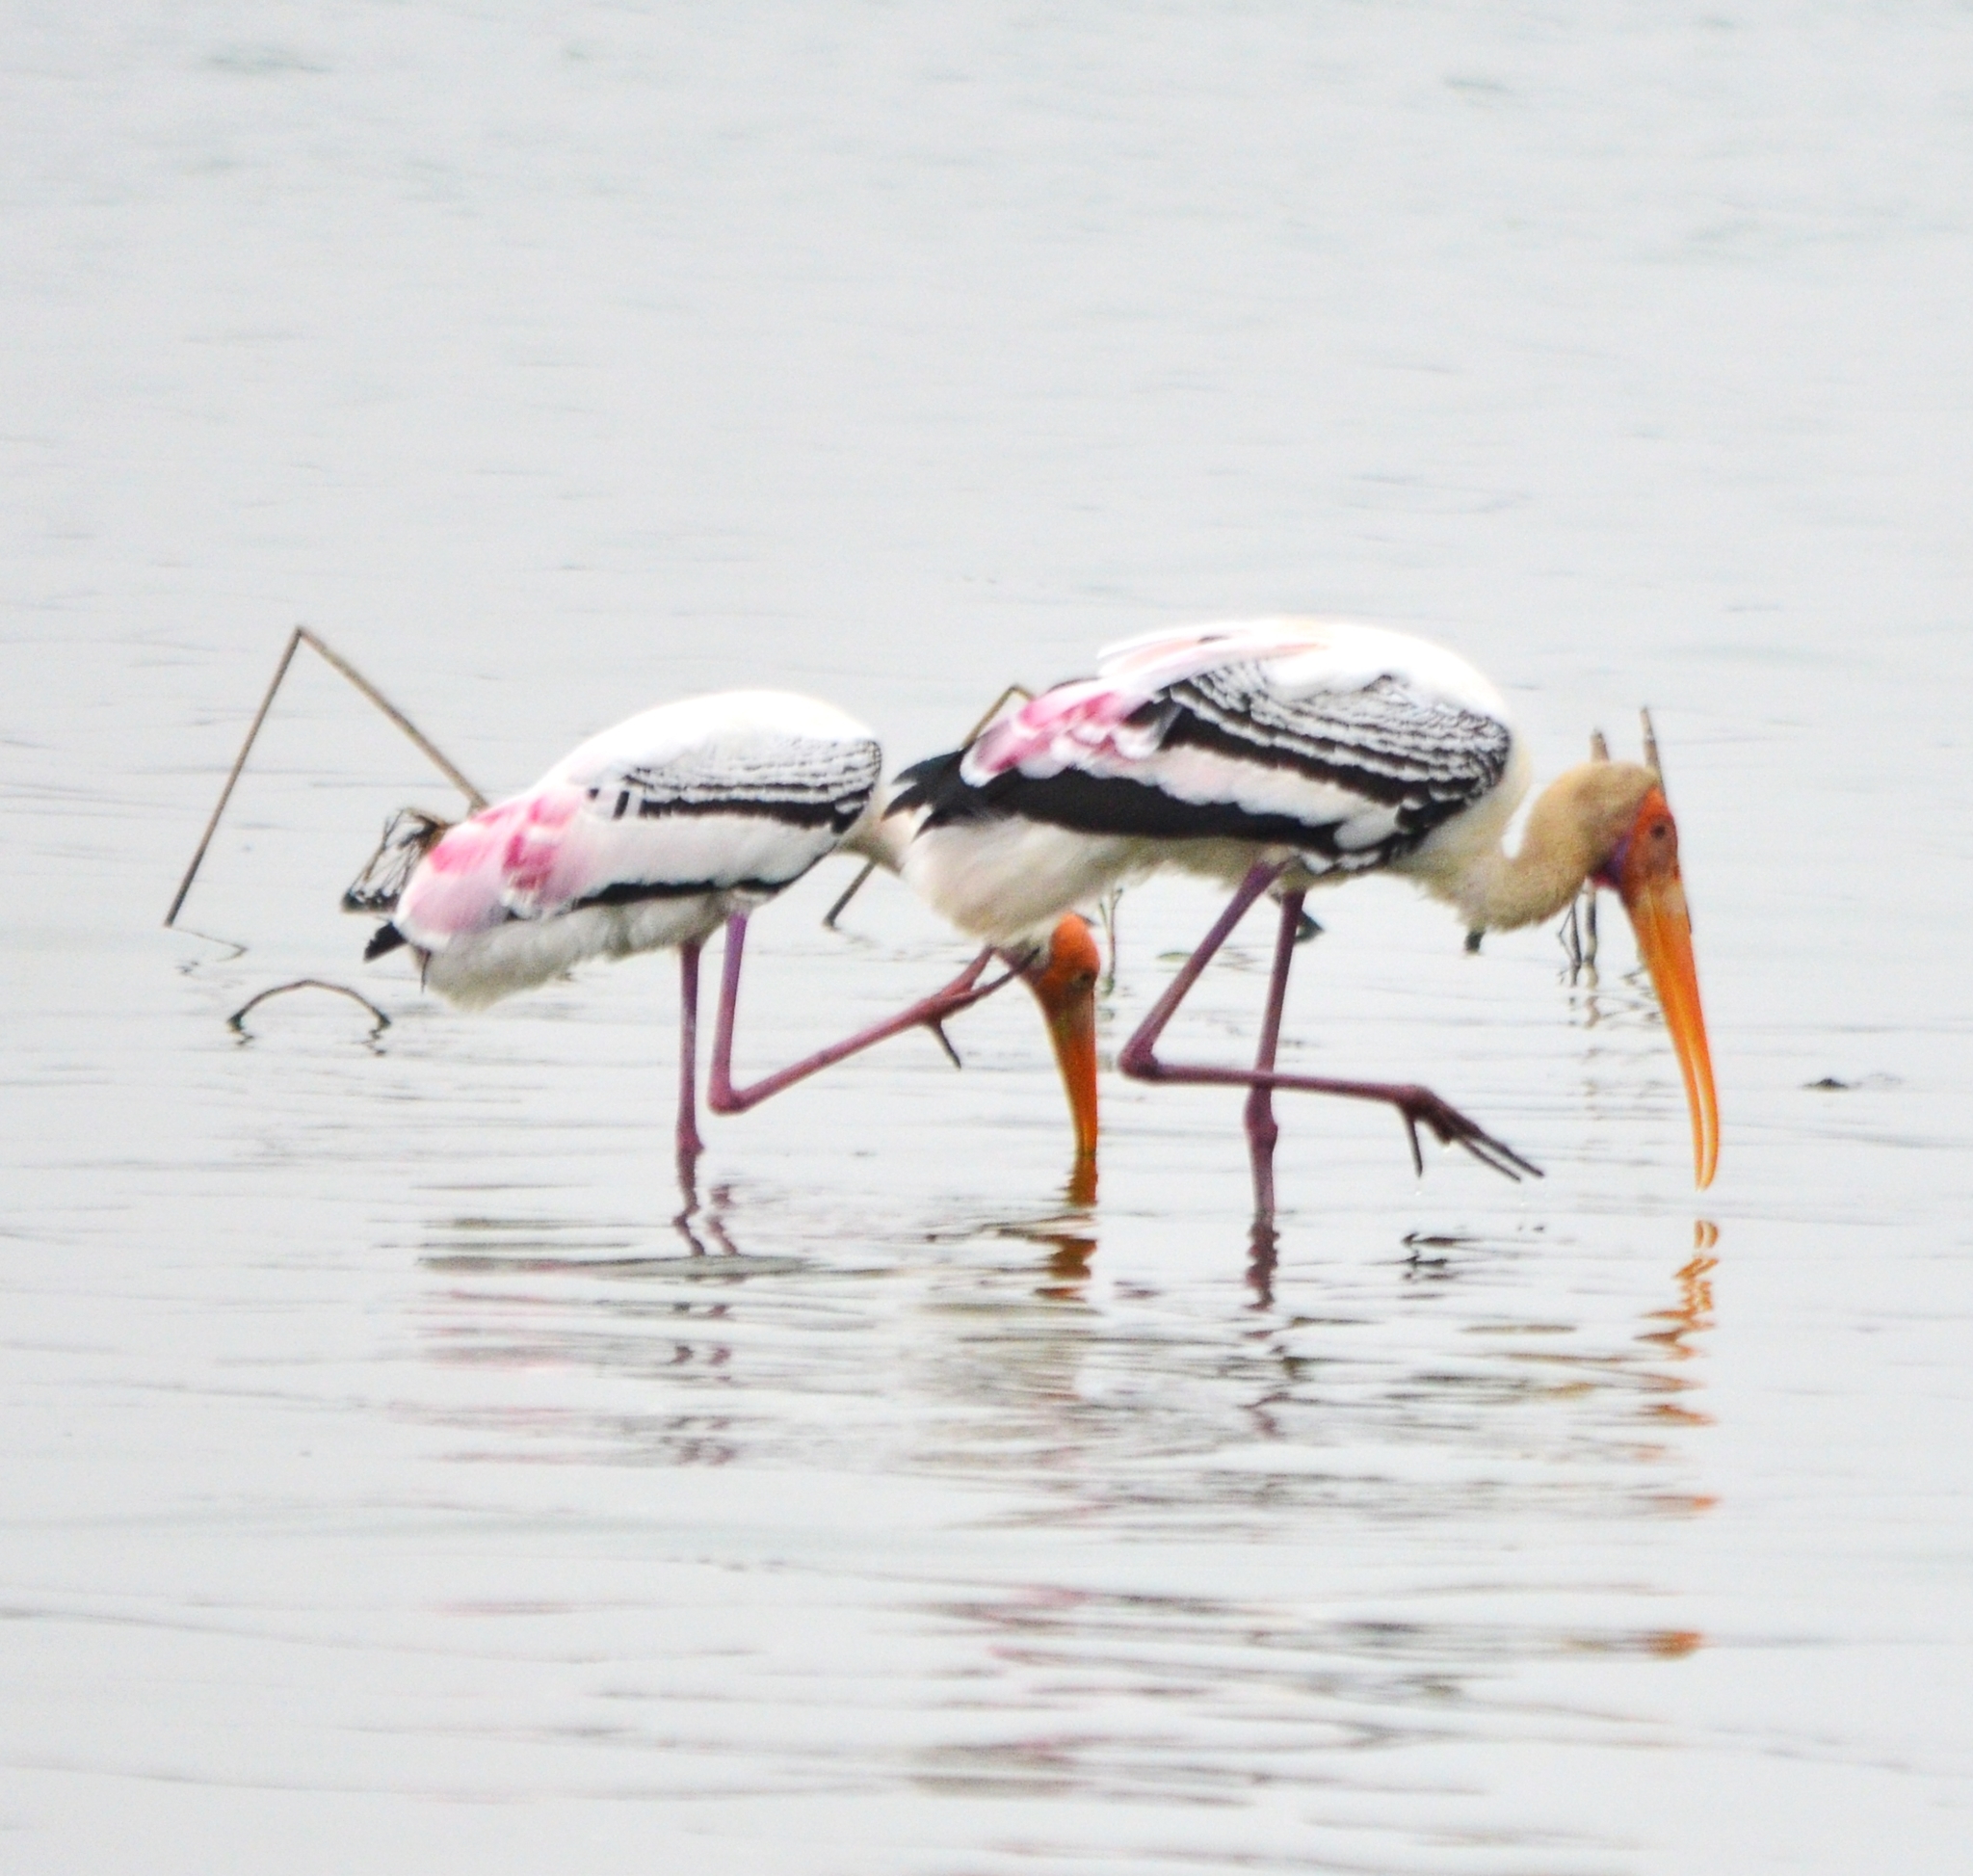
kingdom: Animalia
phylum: Chordata
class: Aves
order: Ciconiiformes
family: Ciconiidae
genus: Mycteria
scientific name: Mycteria leucocephala
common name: Painted stork
